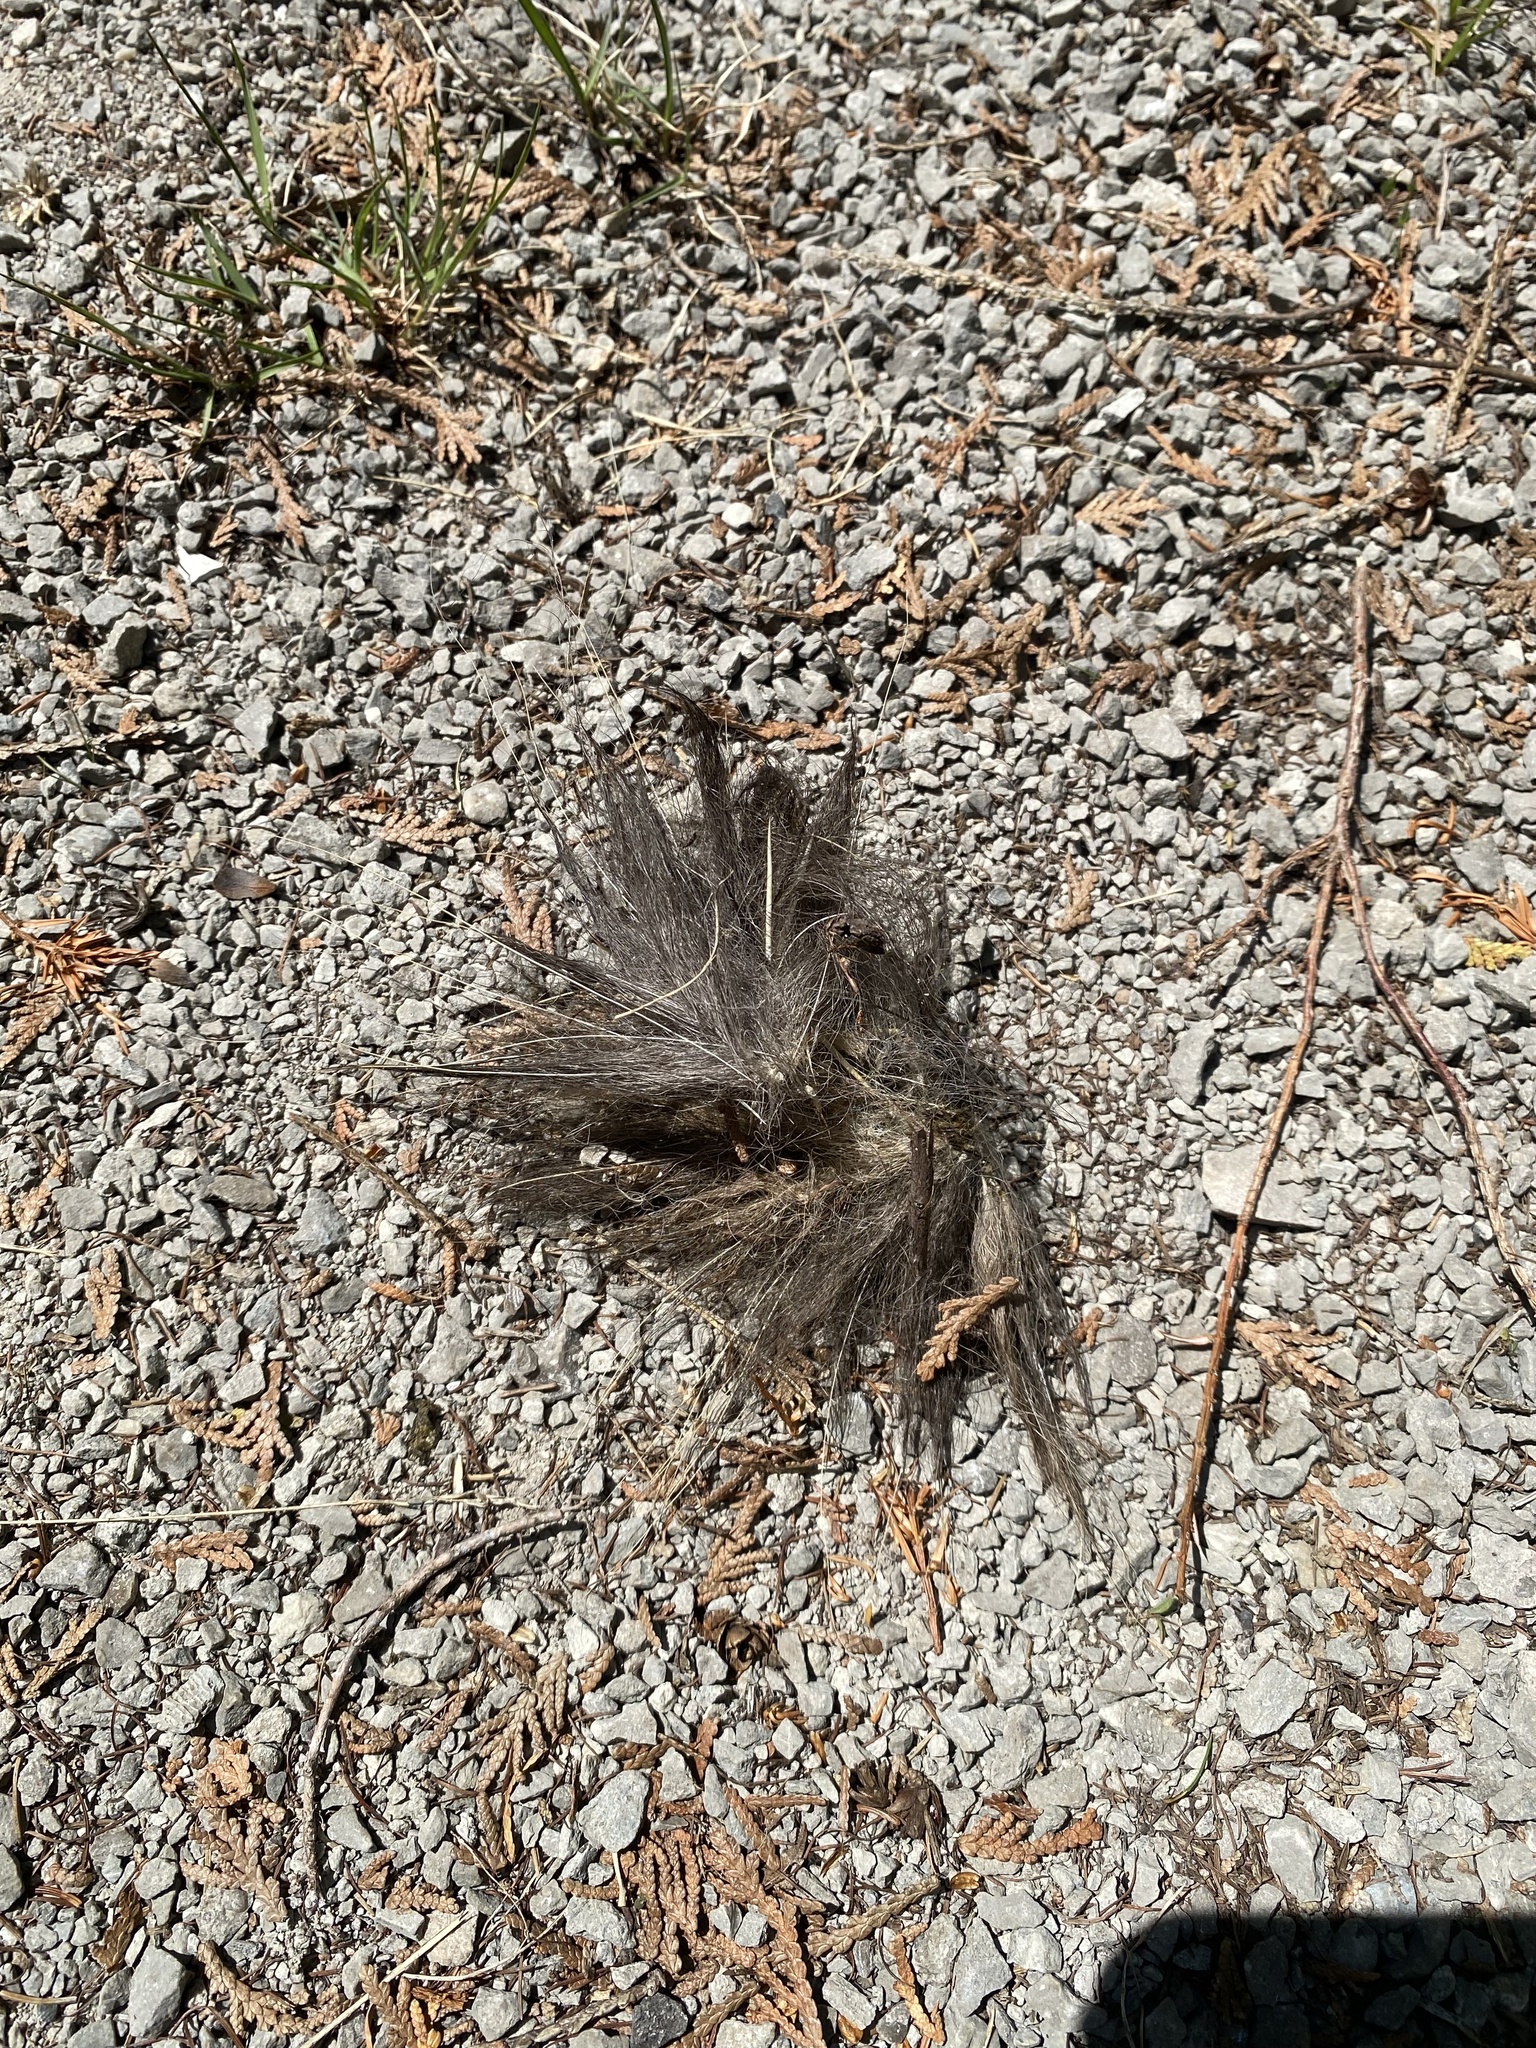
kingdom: Animalia
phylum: Chordata
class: Mammalia
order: Rodentia
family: Erethizontidae
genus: Erethizon
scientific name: Erethizon dorsatus
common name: North american porcupine
